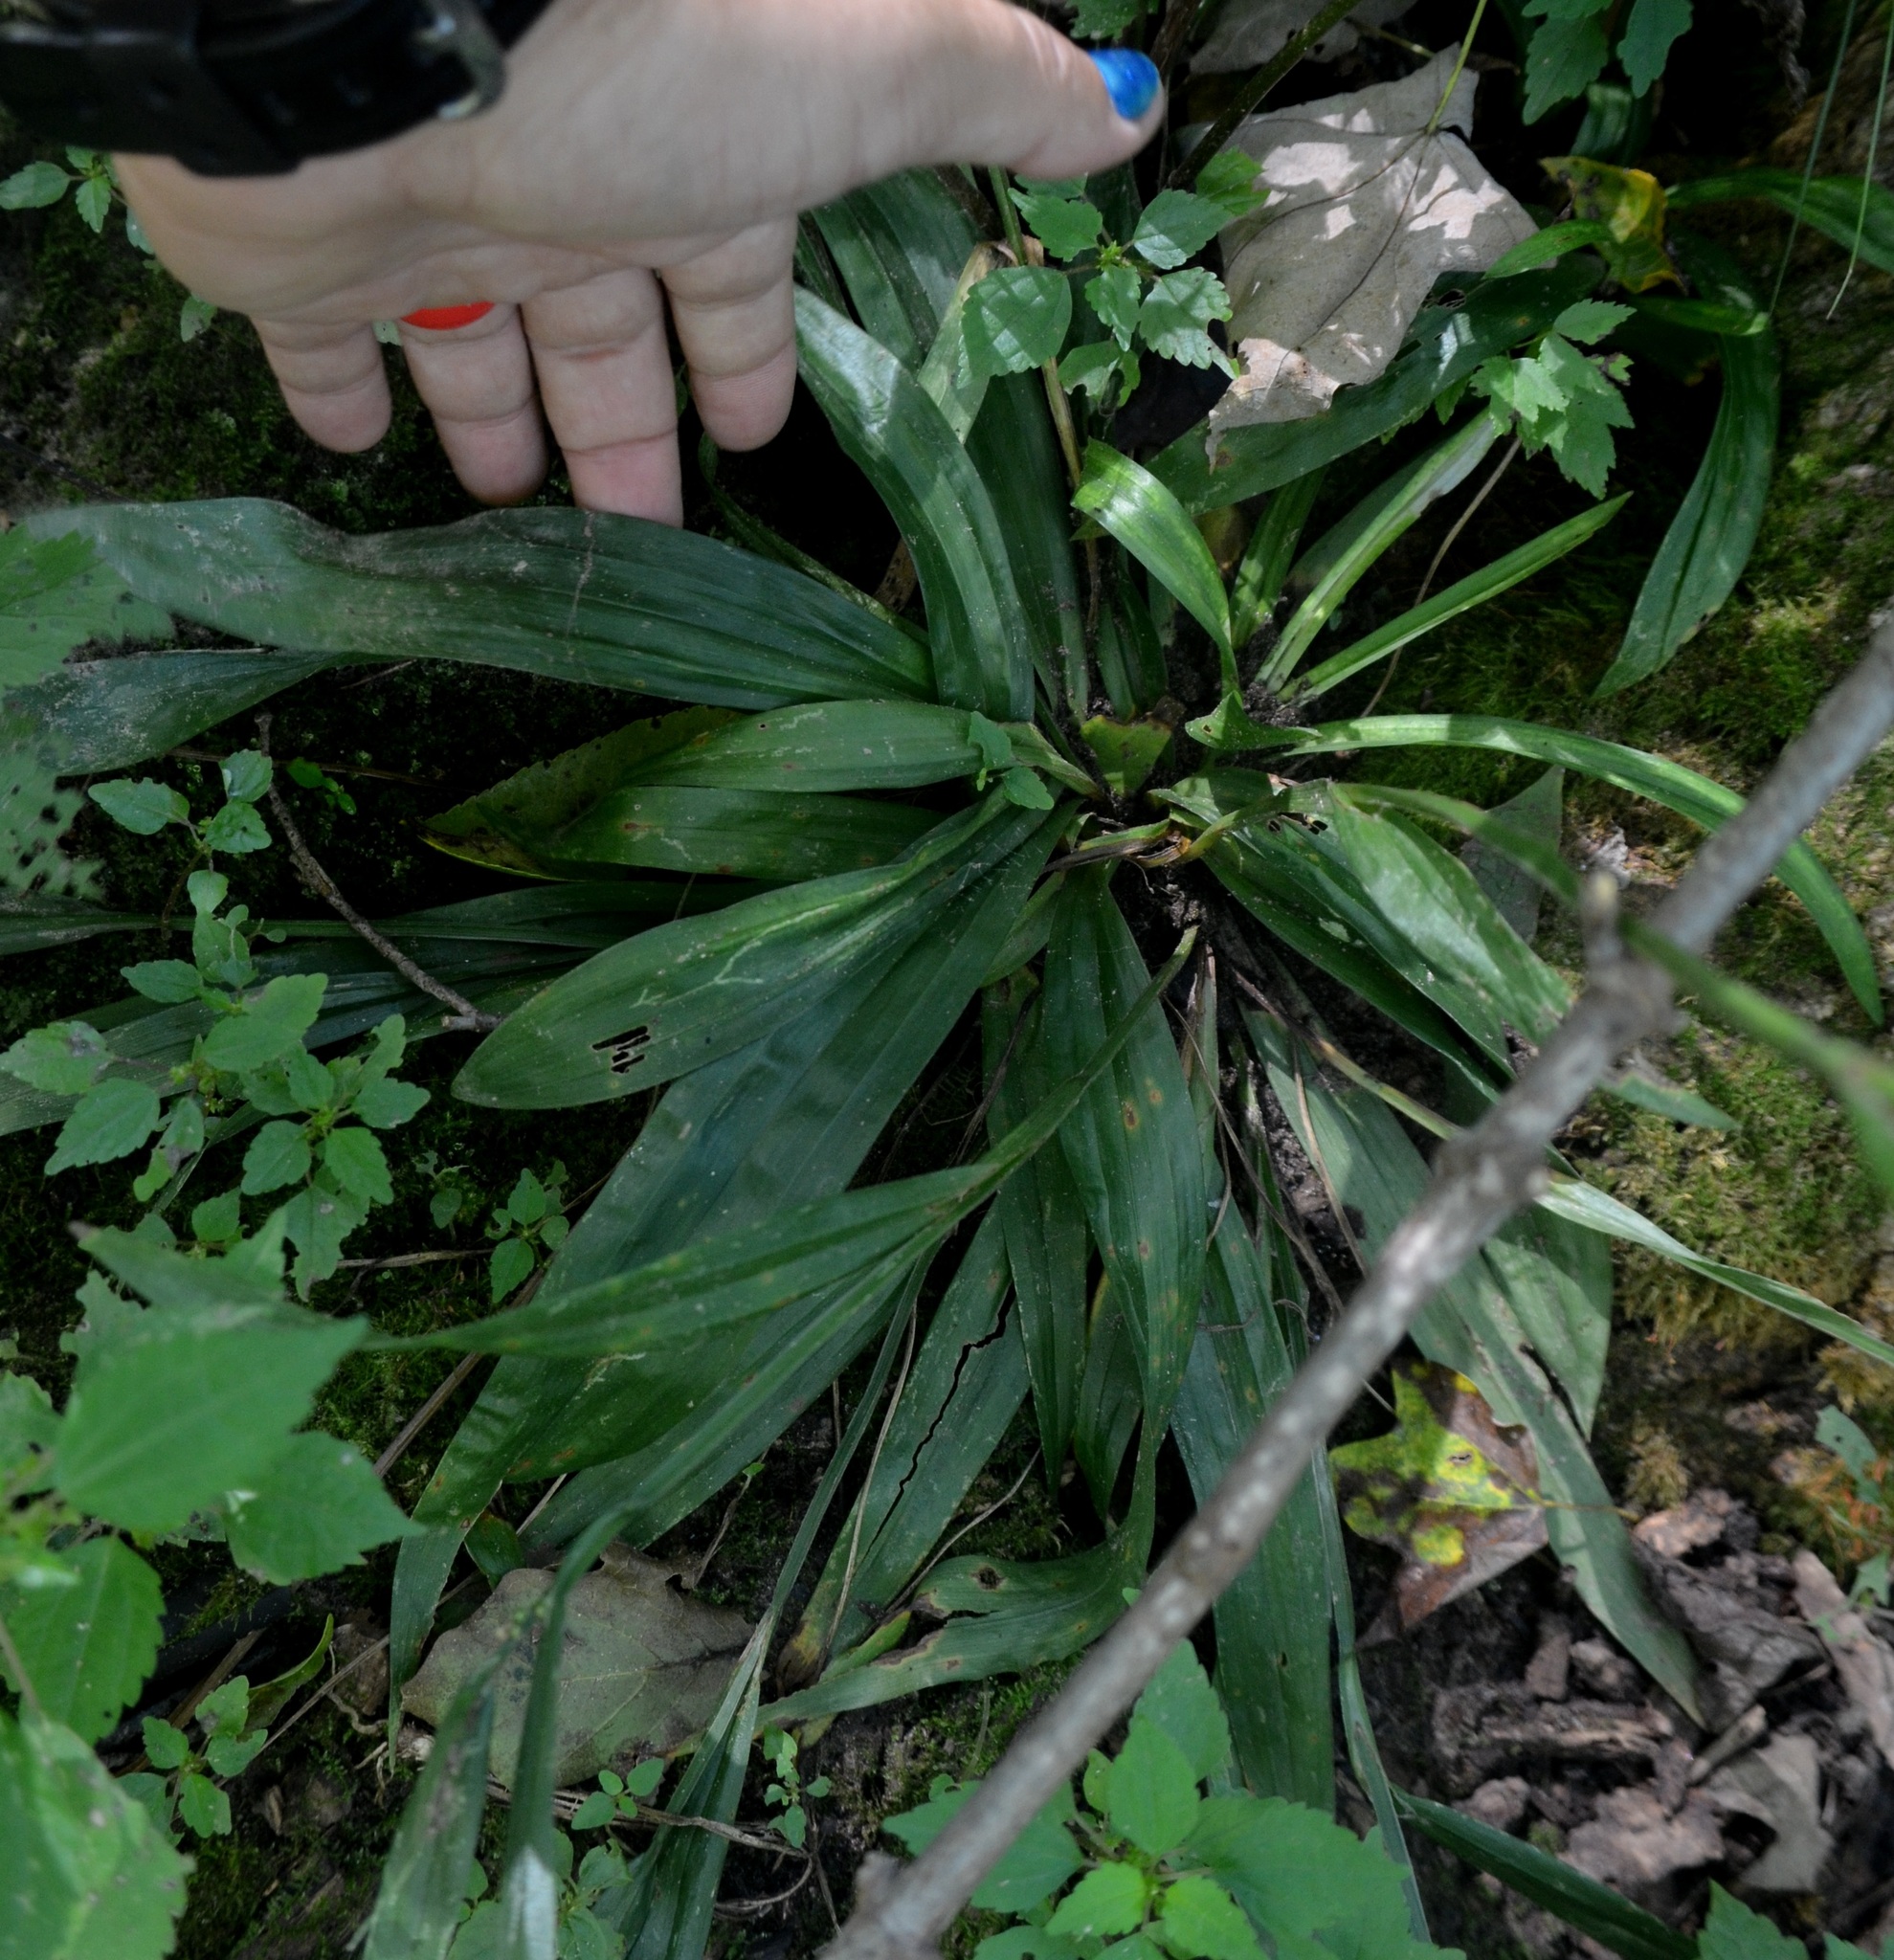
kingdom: Plantae
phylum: Tracheophyta
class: Liliopsida
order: Poales
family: Cyperaceae
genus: Carex
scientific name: Carex albursina
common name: Blunt-scale wood sedge
